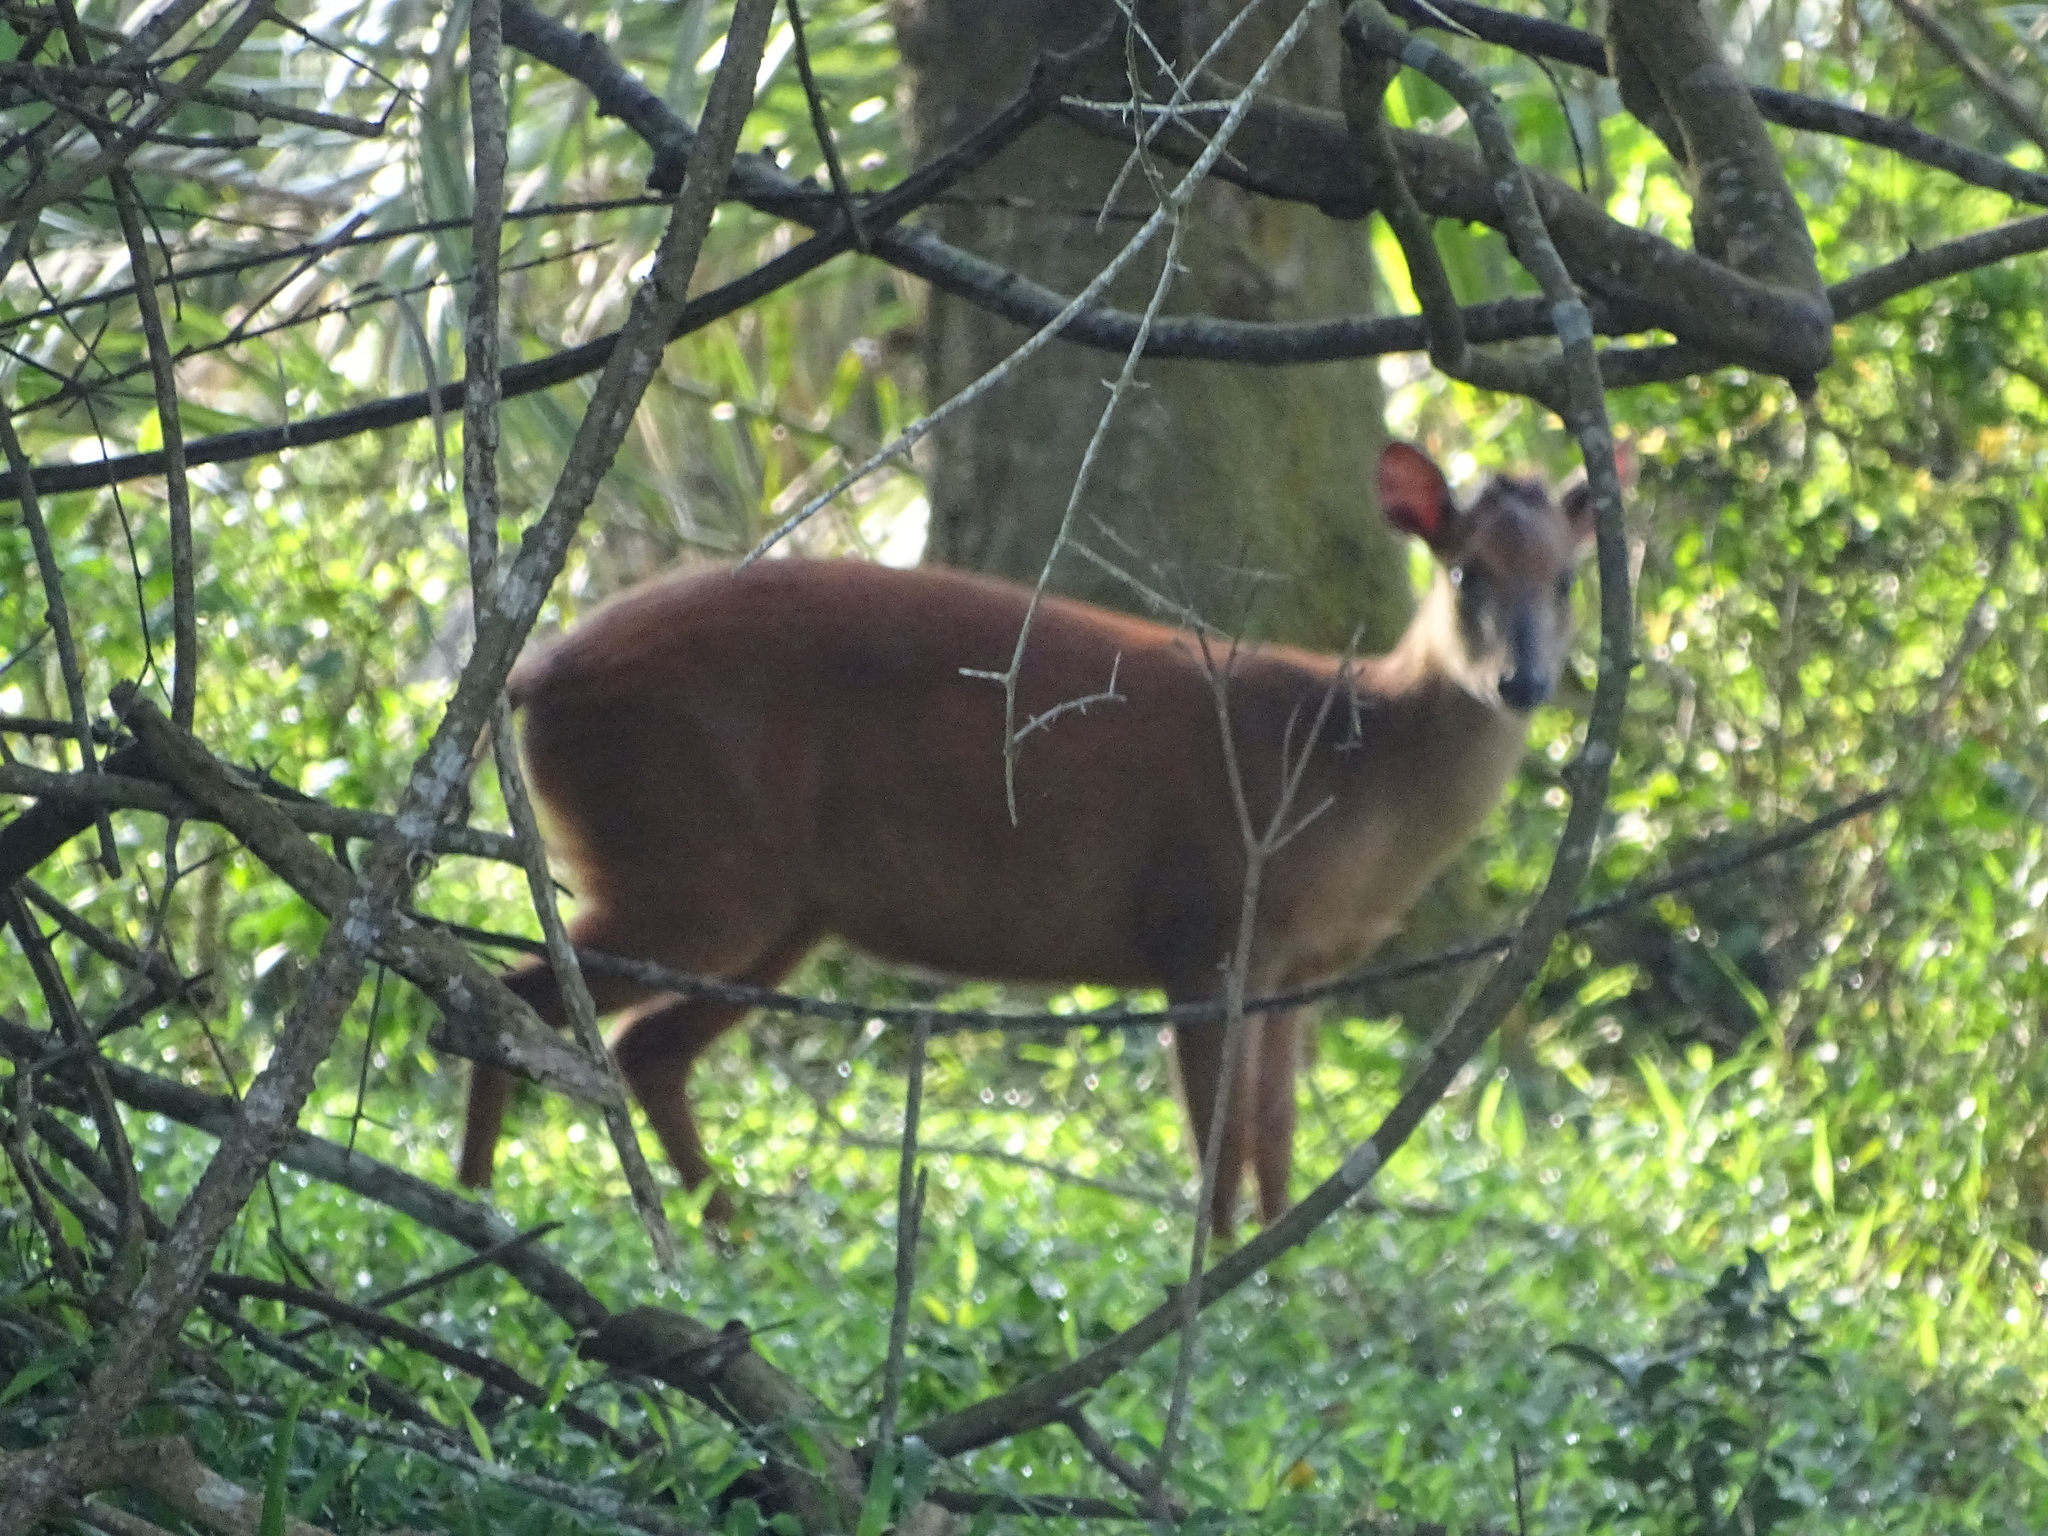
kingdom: Animalia
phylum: Chordata
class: Mammalia
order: Artiodactyla
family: Bovidae
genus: Cephalophus
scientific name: Cephalophus natalensis
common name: Red duiker
